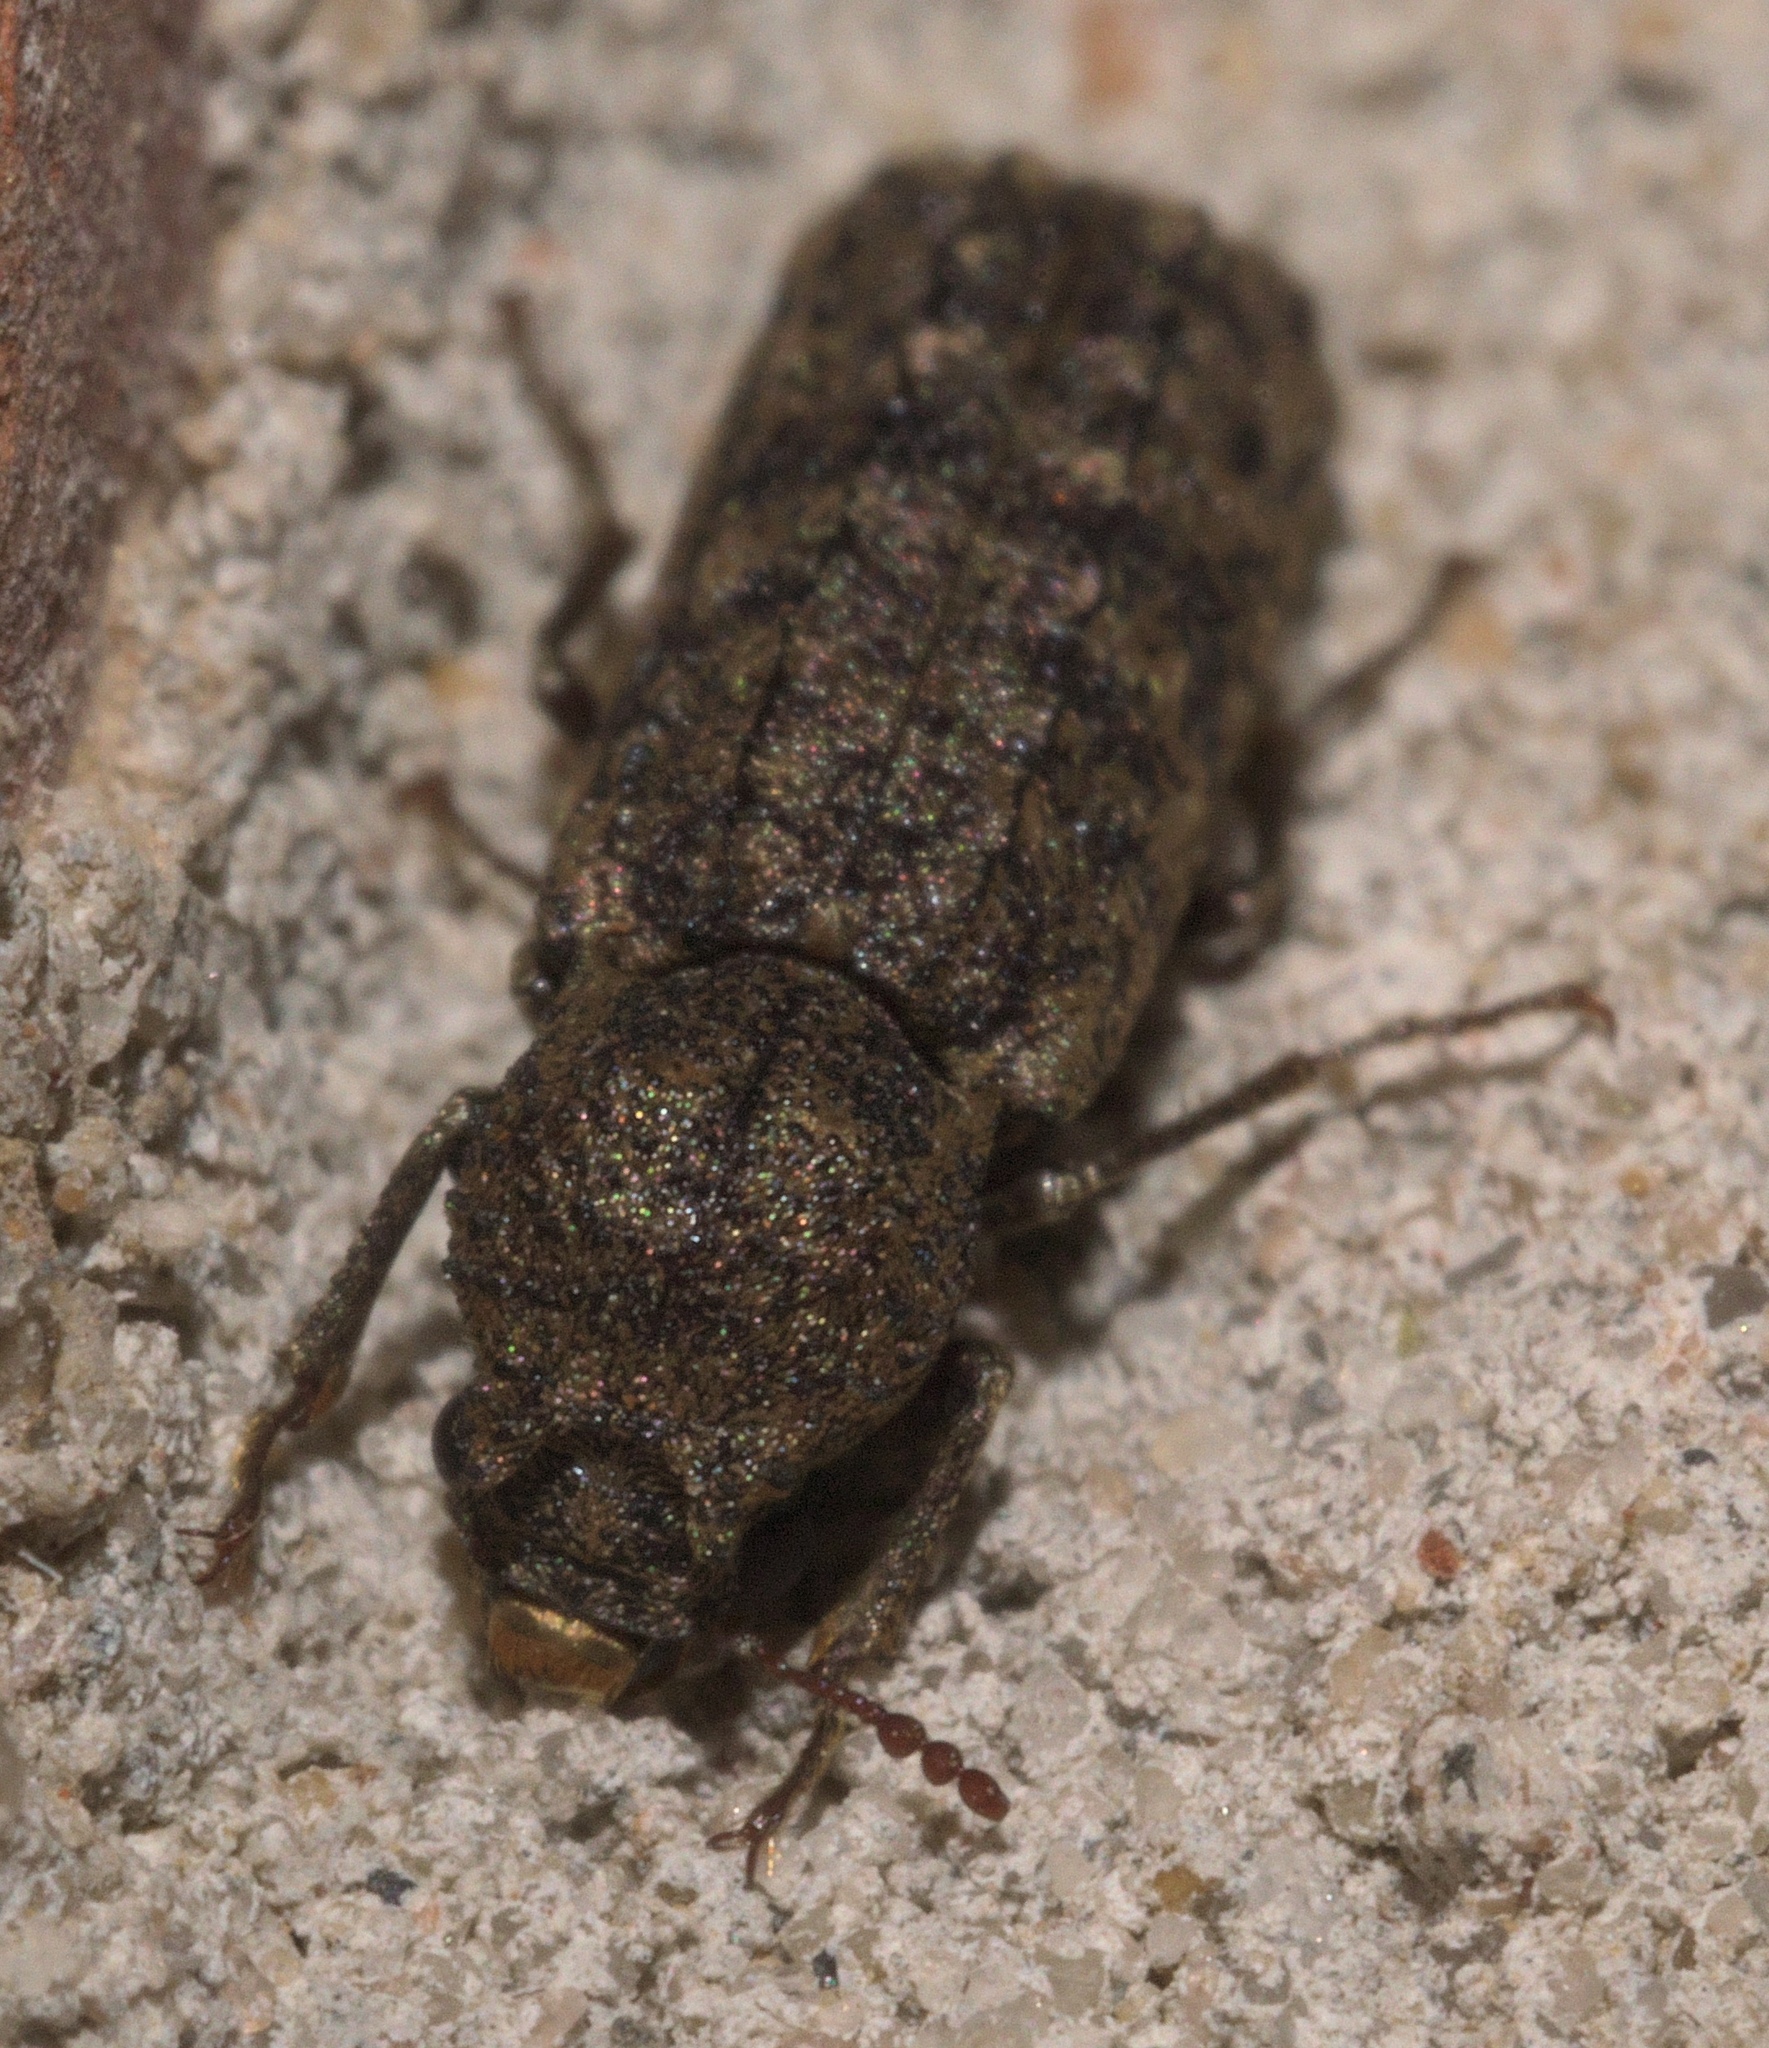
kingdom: Animalia
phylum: Arthropoda
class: Insecta
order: Coleoptera
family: Bostrichidae
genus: Lichenophanes
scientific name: Lichenophanes bicornis
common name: Two-horned powder-post beetle
